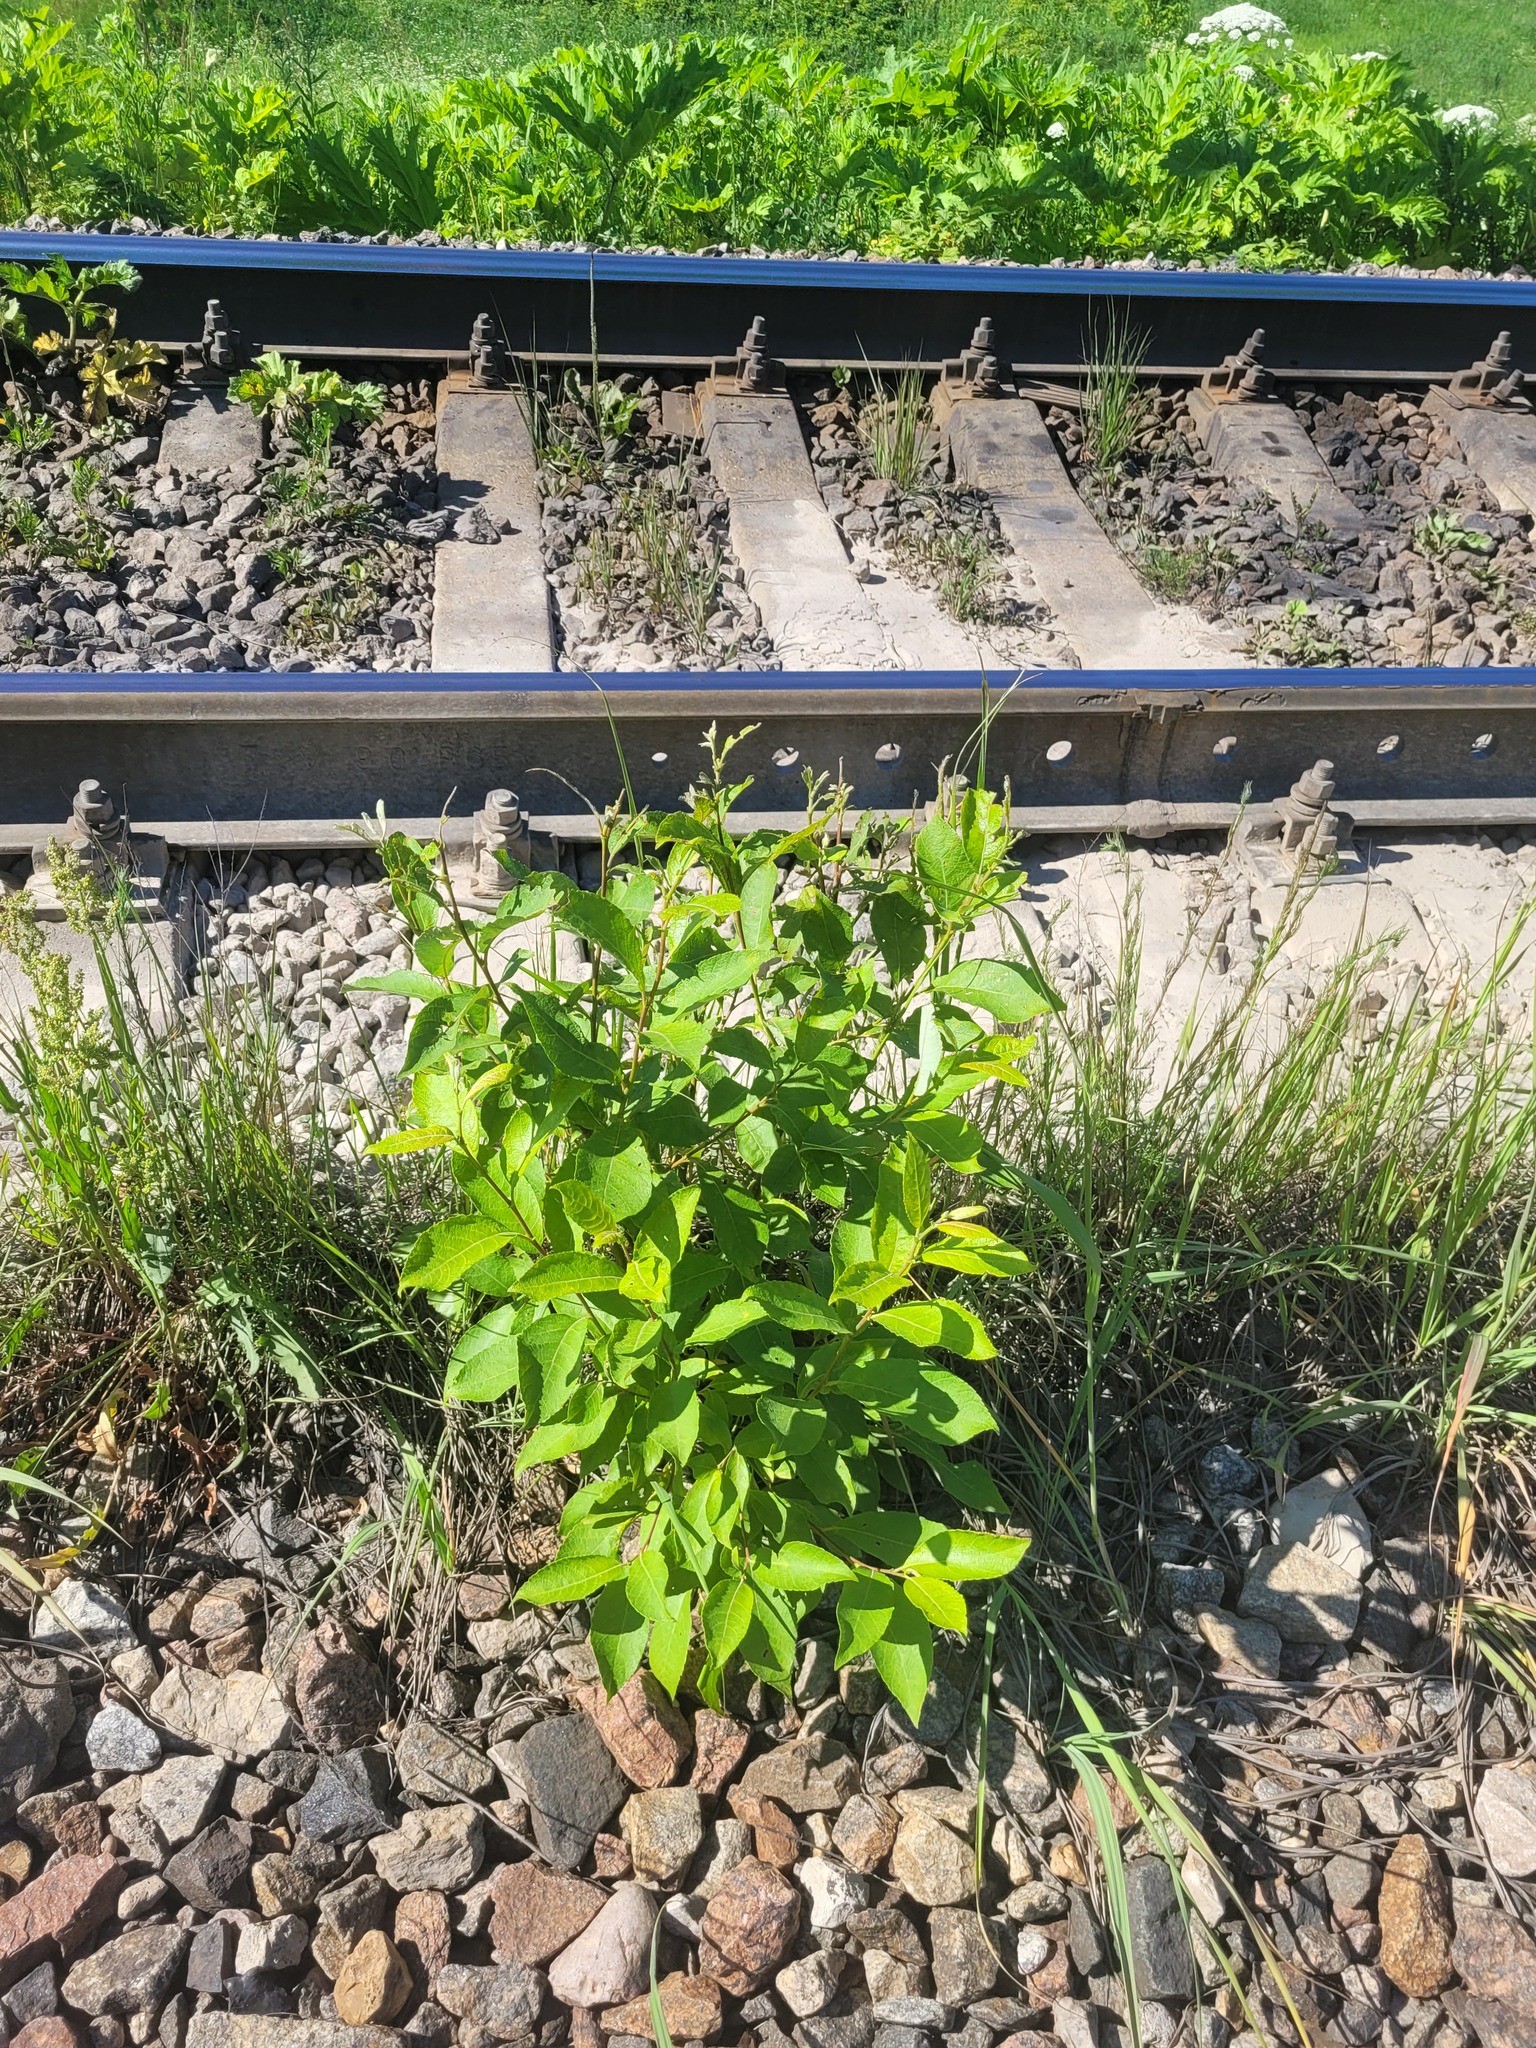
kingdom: Plantae
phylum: Tracheophyta
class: Magnoliopsida
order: Malpighiales
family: Salicaceae
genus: Salix
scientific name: Salix caprea
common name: Goat willow
